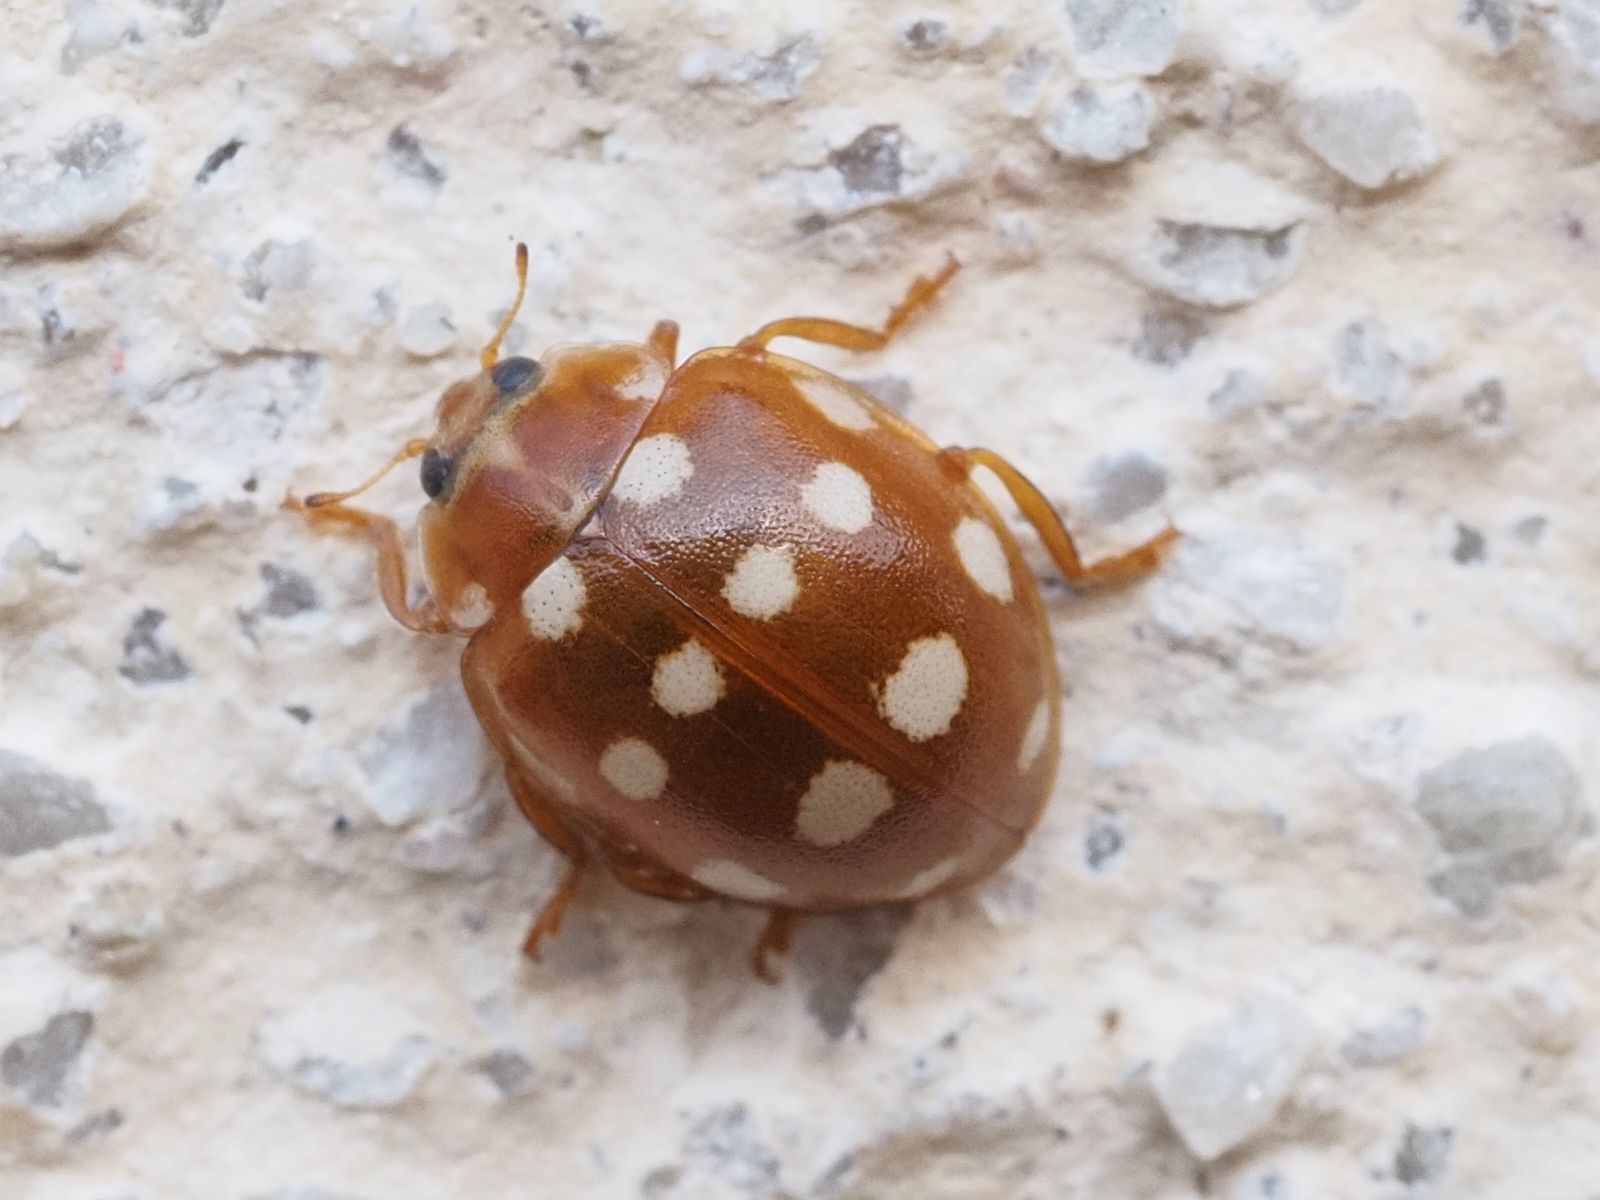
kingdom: Animalia
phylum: Arthropoda
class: Insecta
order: Coleoptera
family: Coccinellidae
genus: Calvia
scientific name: Calvia quatuordecimguttata
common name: Cream-spot ladybird
